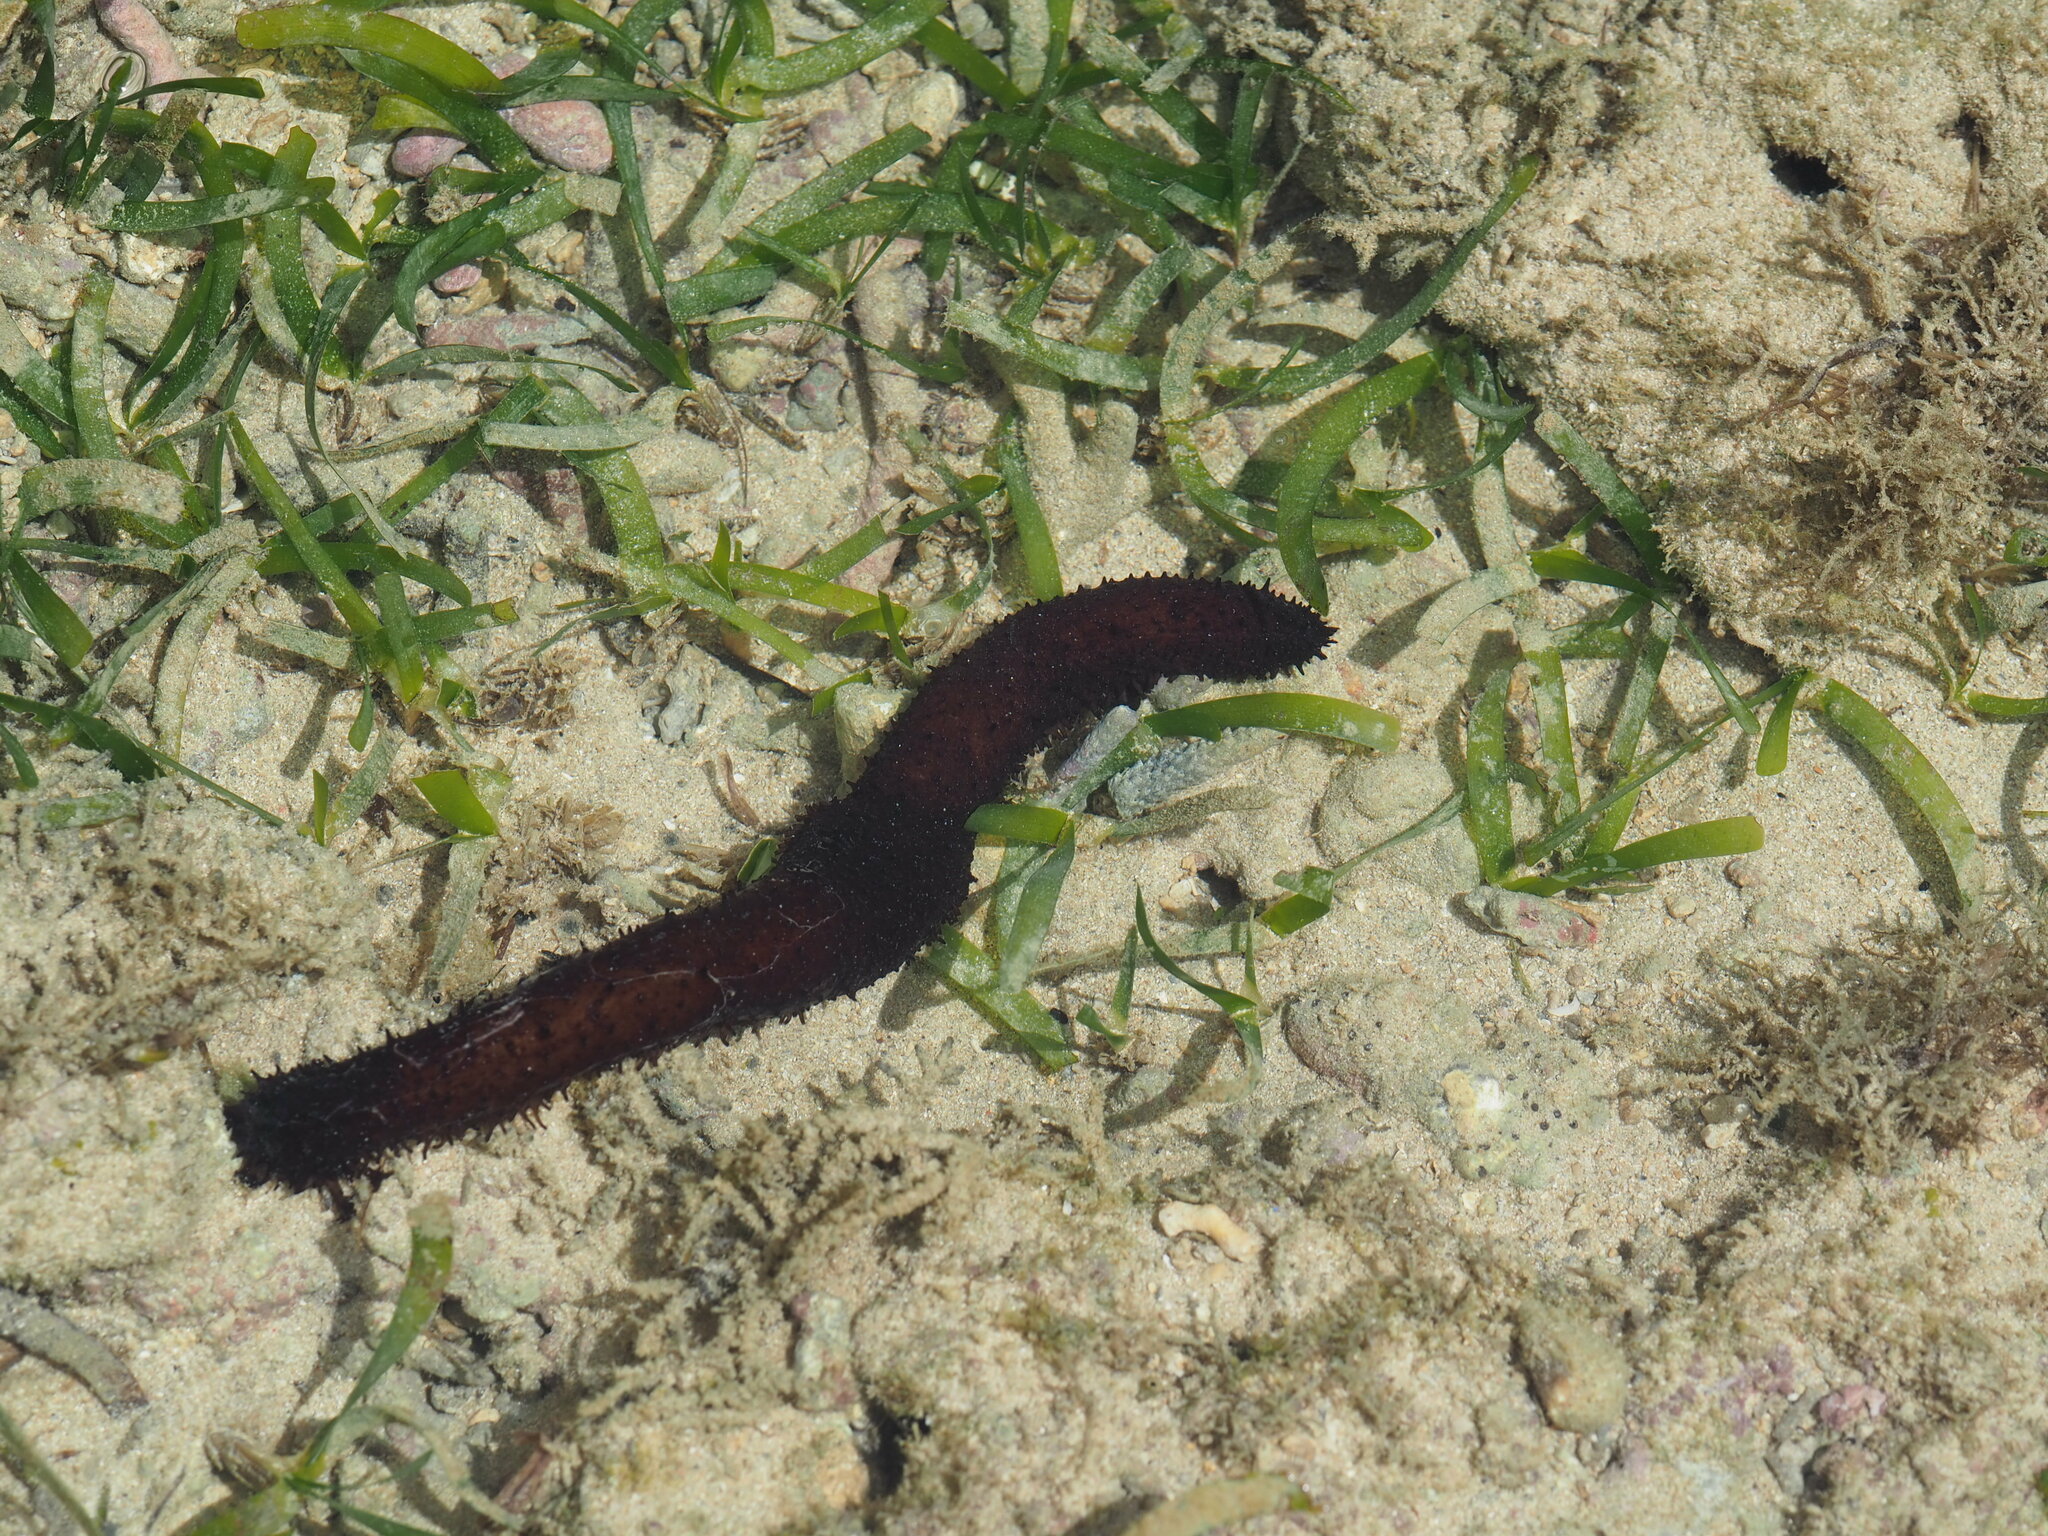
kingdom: Animalia
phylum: Echinodermata
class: Holothuroidea
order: Holothuriida
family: Holothuriidae
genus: Holothuria
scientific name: Holothuria leucospilota
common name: White thread fish
